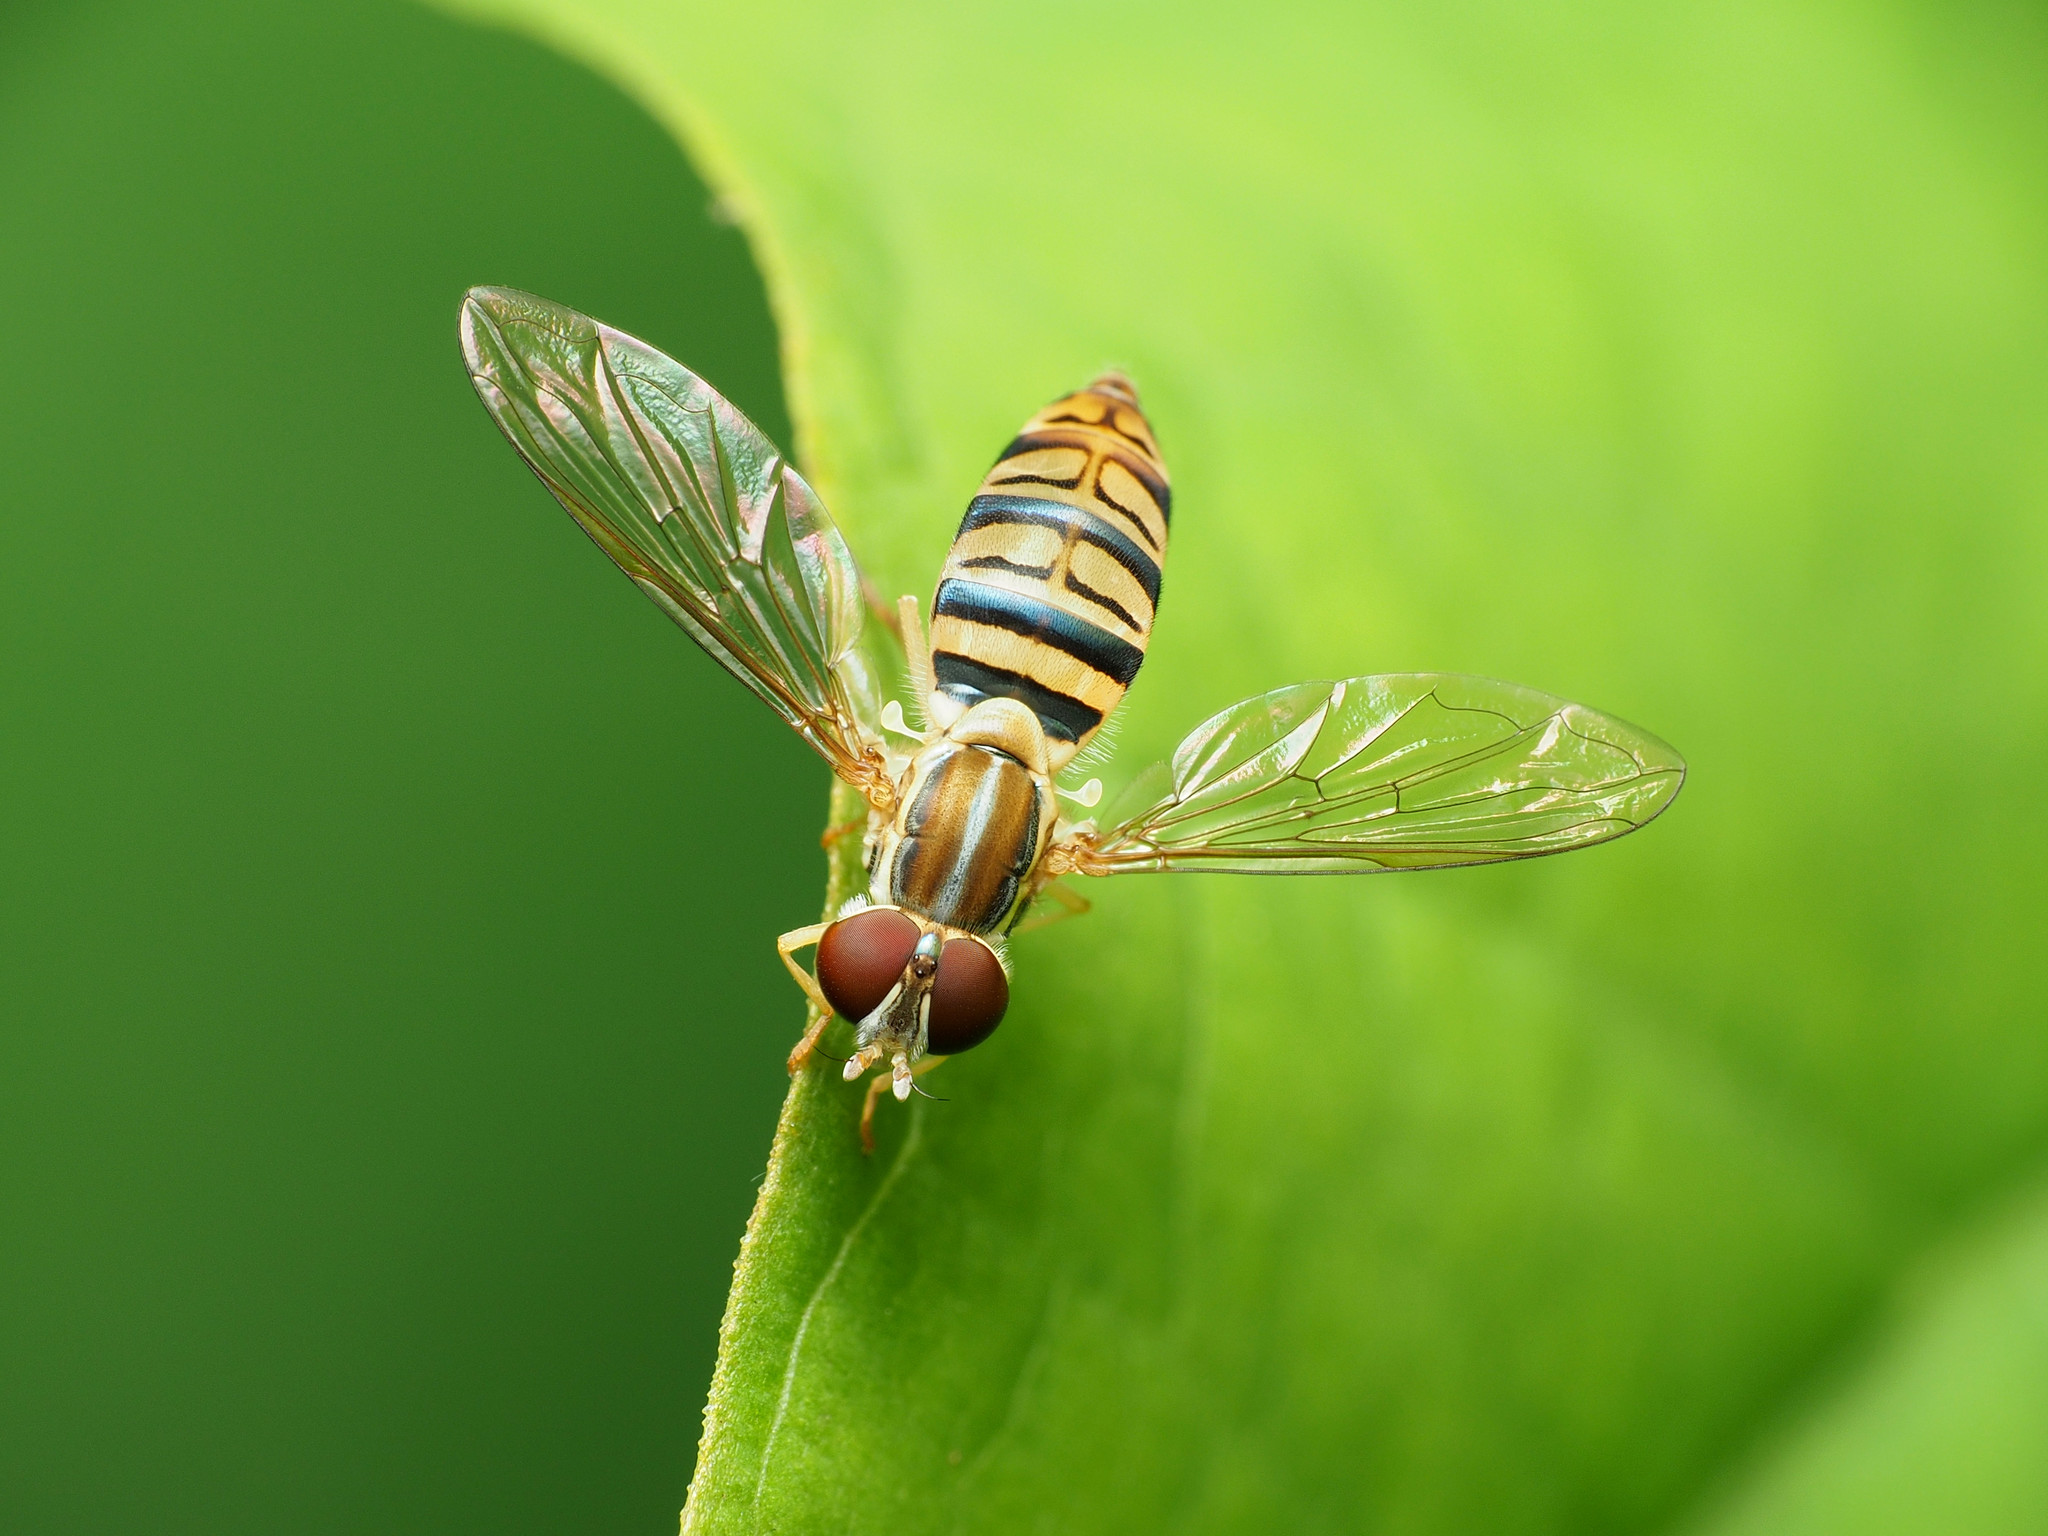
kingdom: Animalia
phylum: Arthropoda
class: Insecta
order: Diptera
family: Syrphidae
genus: Toxomerus
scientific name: Toxomerus politus
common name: Maize calligrapher
